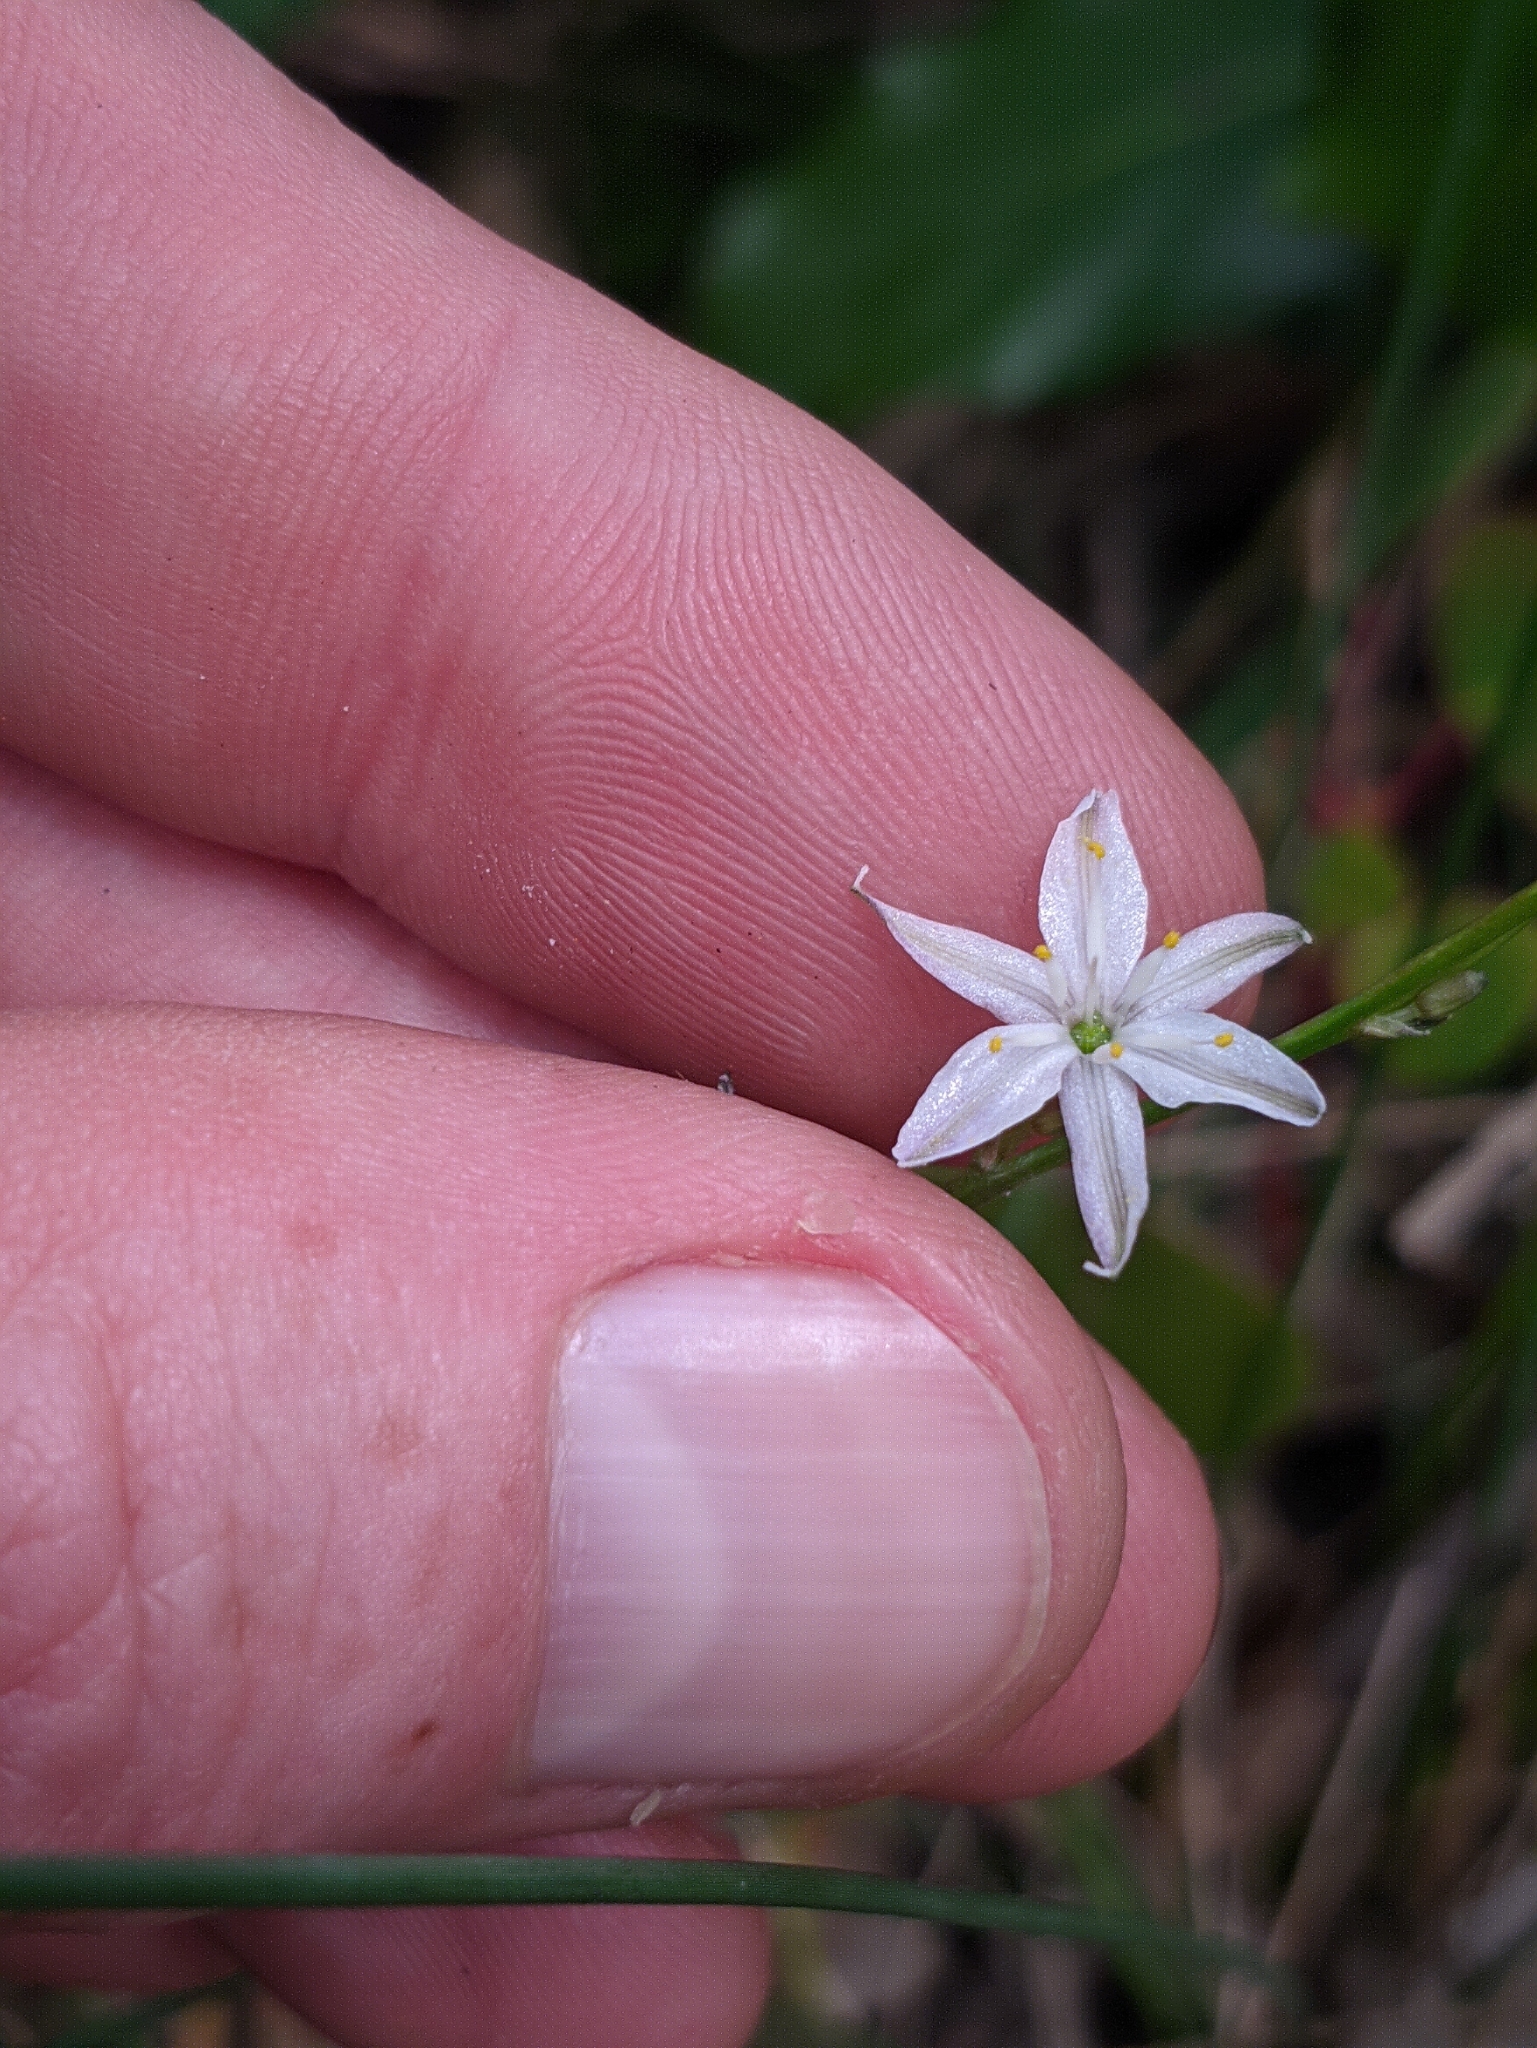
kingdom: Plantae
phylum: Tracheophyta
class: Liliopsida
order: Asparagales
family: Asphodelaceae
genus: Caesia
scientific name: Caesia parviflora
